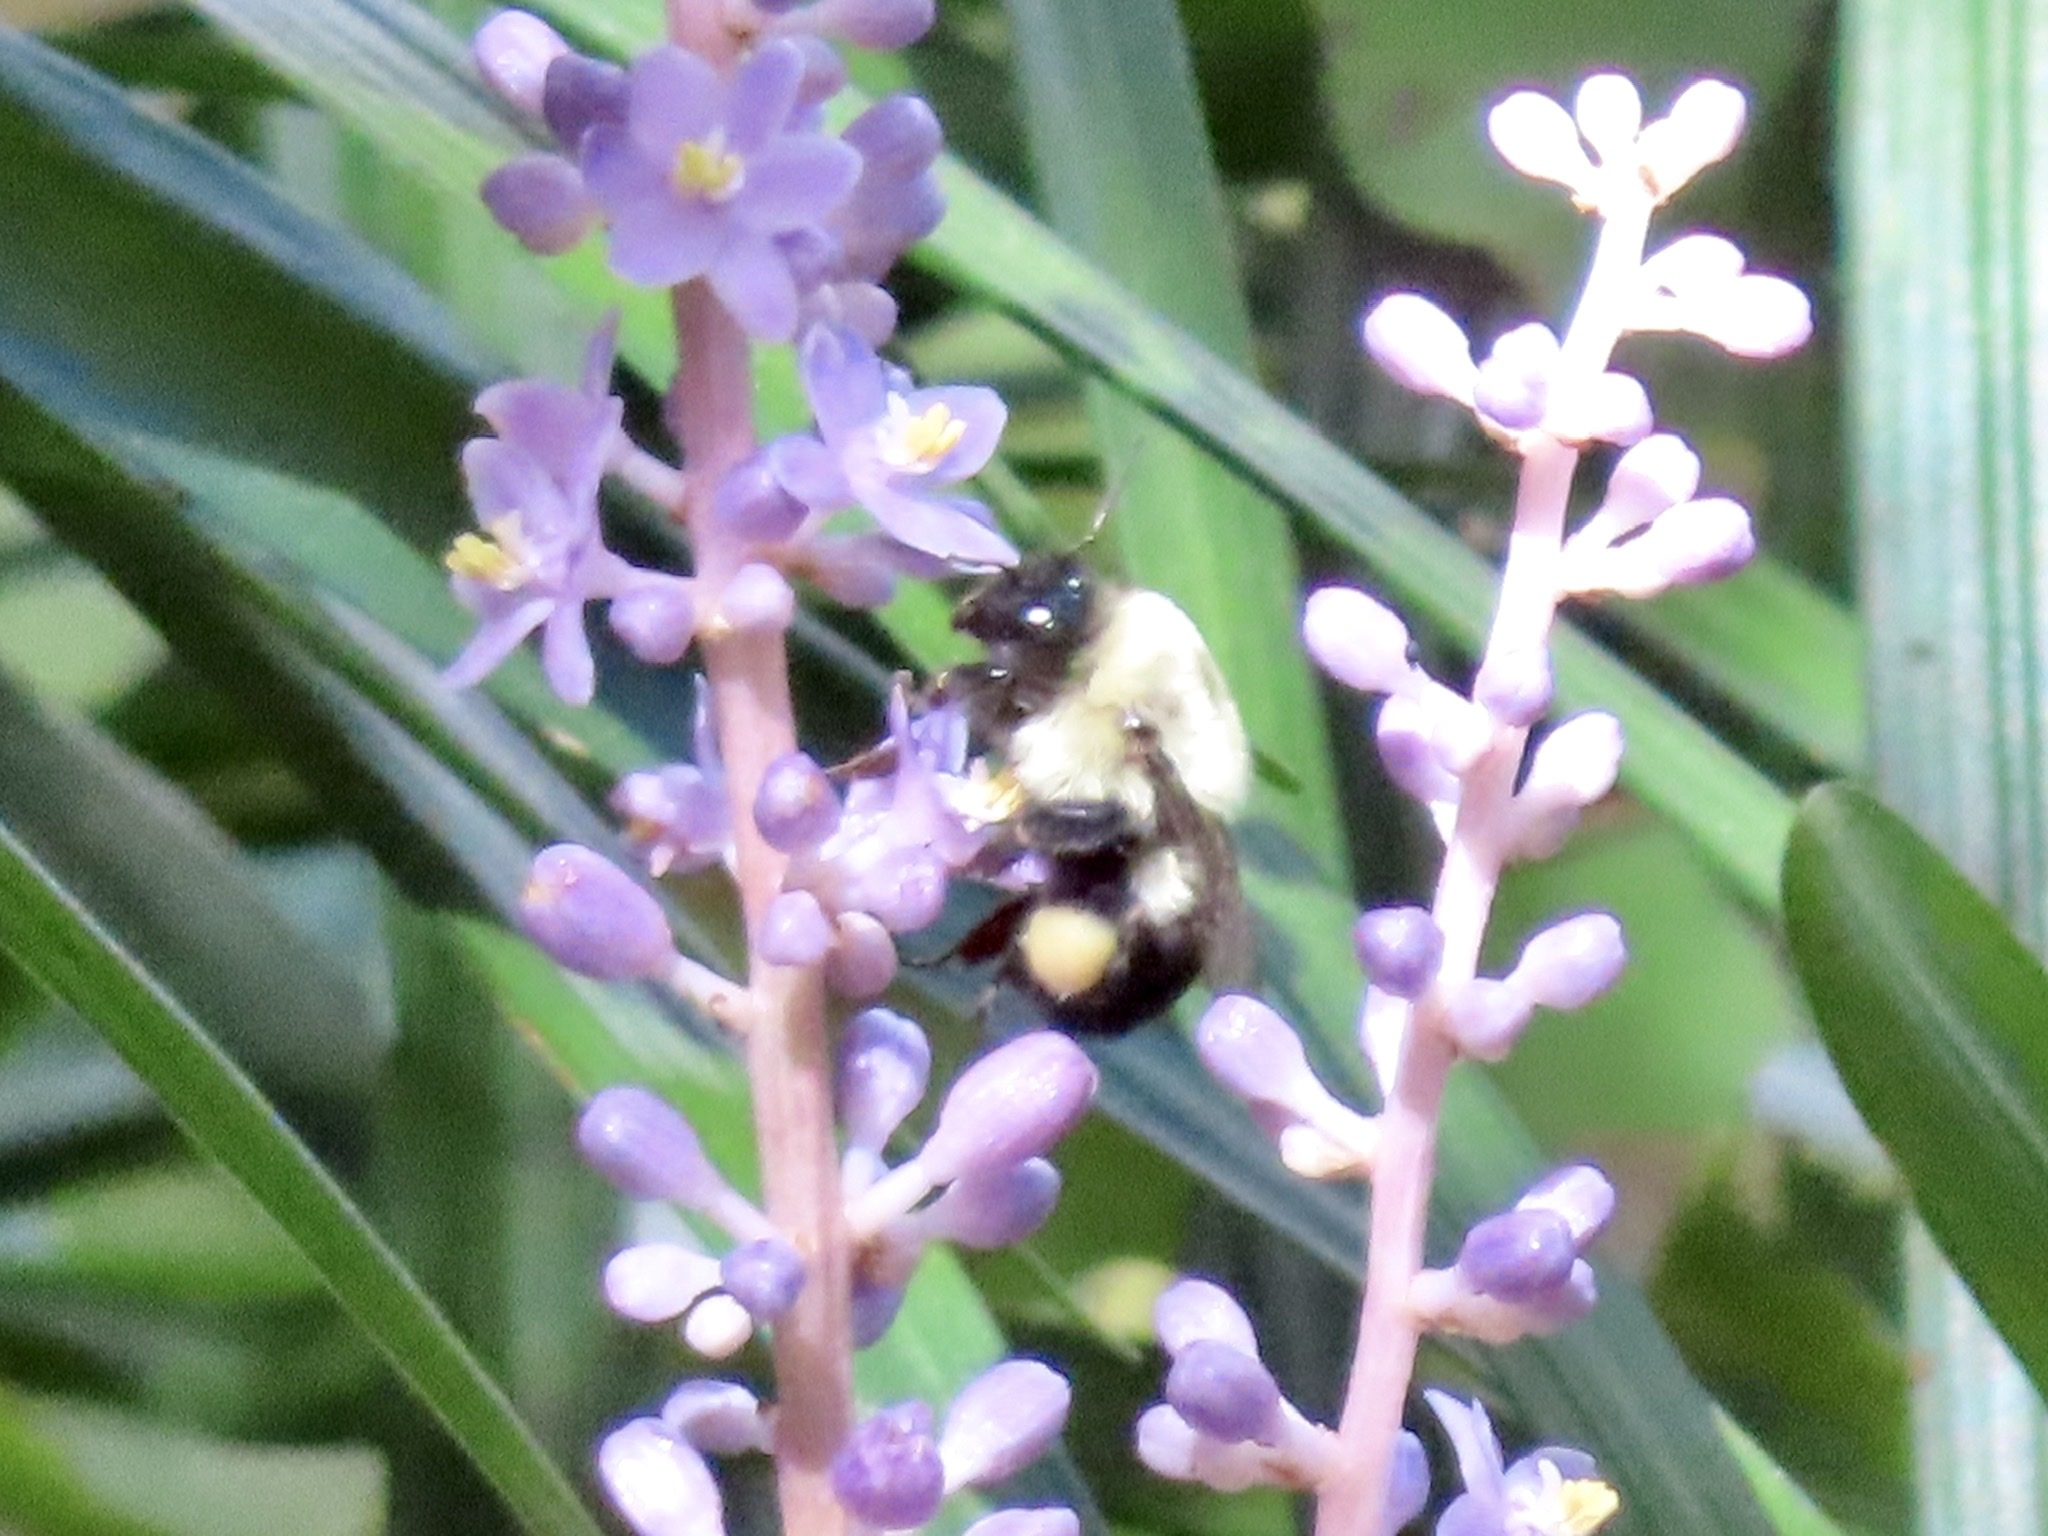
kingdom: Animalia
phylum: Arthropoda
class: Insecta
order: Hymenoptera
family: Apidae
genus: Bombus
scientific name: Bombus impatiens
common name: Common eastern bumble bee
